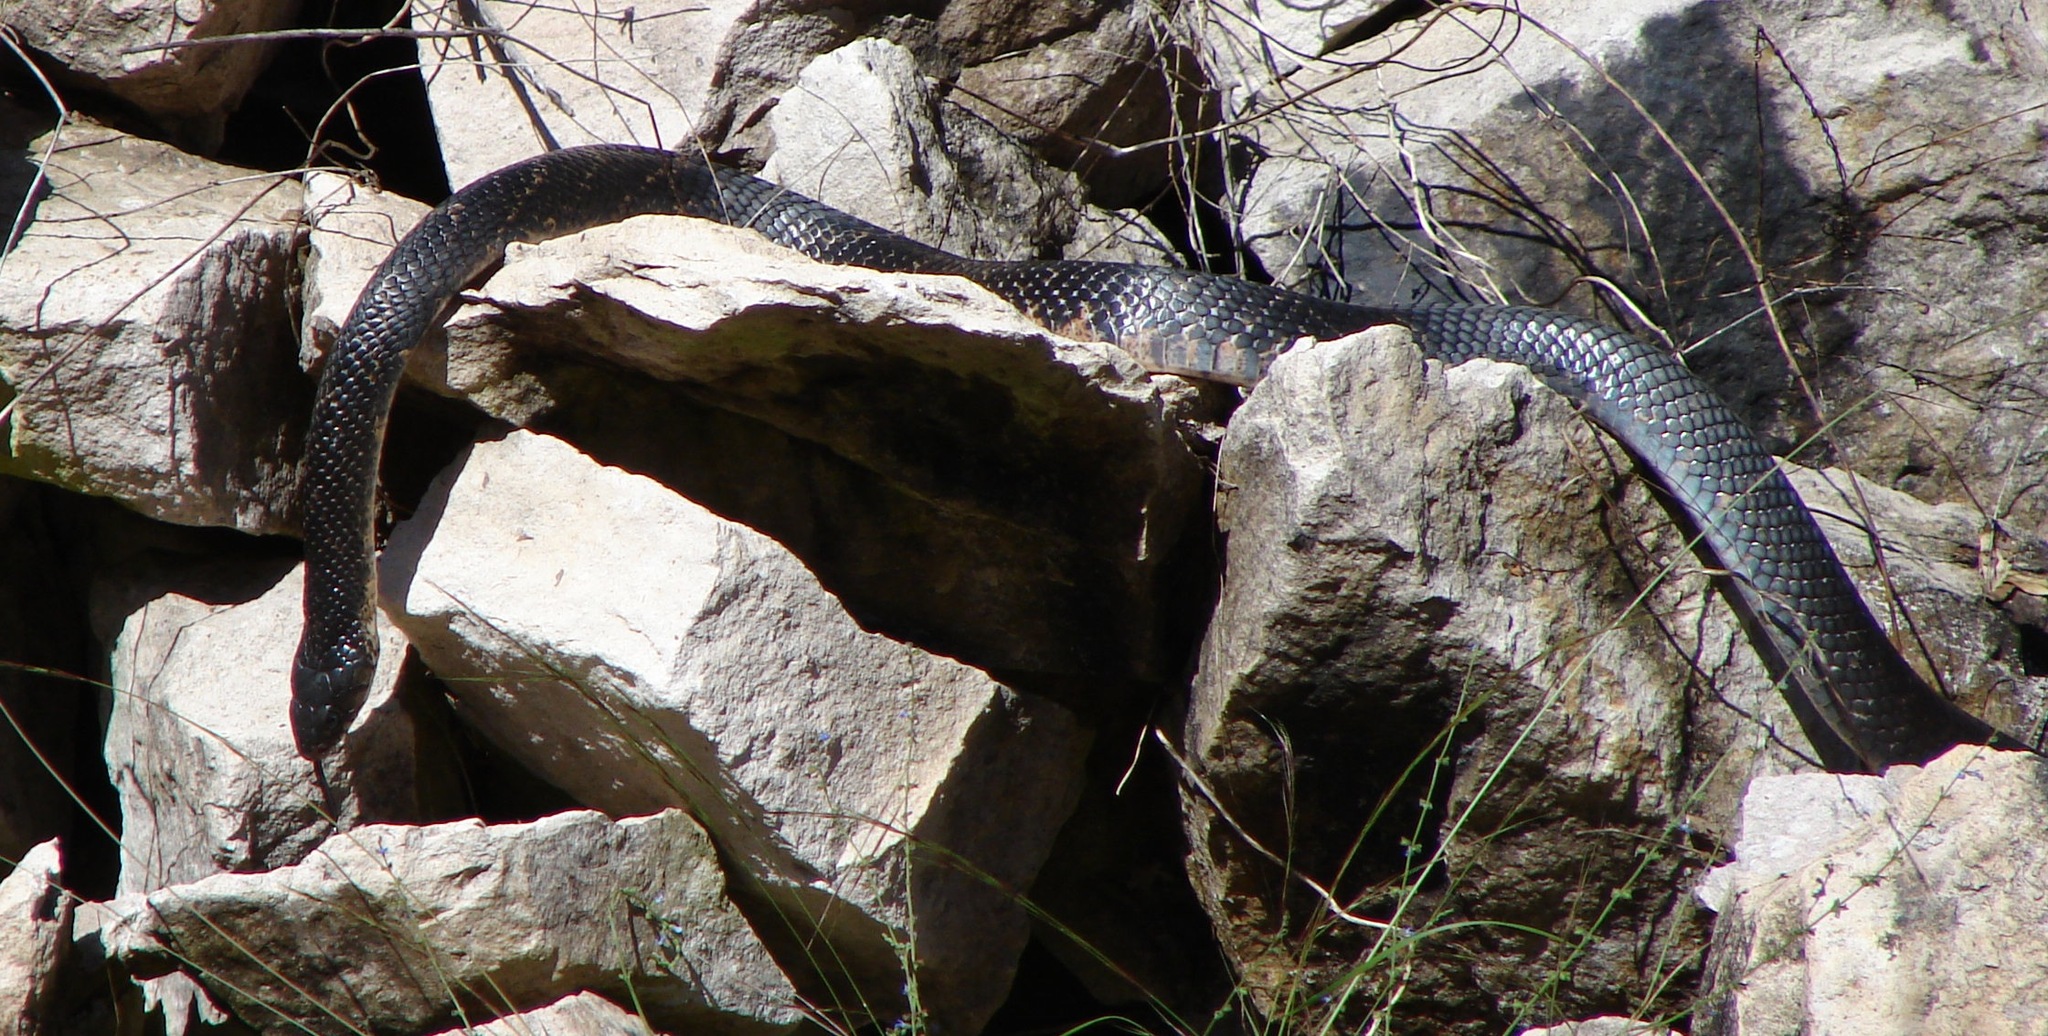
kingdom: Animalia
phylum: Chordata
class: Squamata
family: Colubridae
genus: Drymarchon
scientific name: Drymarchon melanurus
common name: Central american indigo snake
